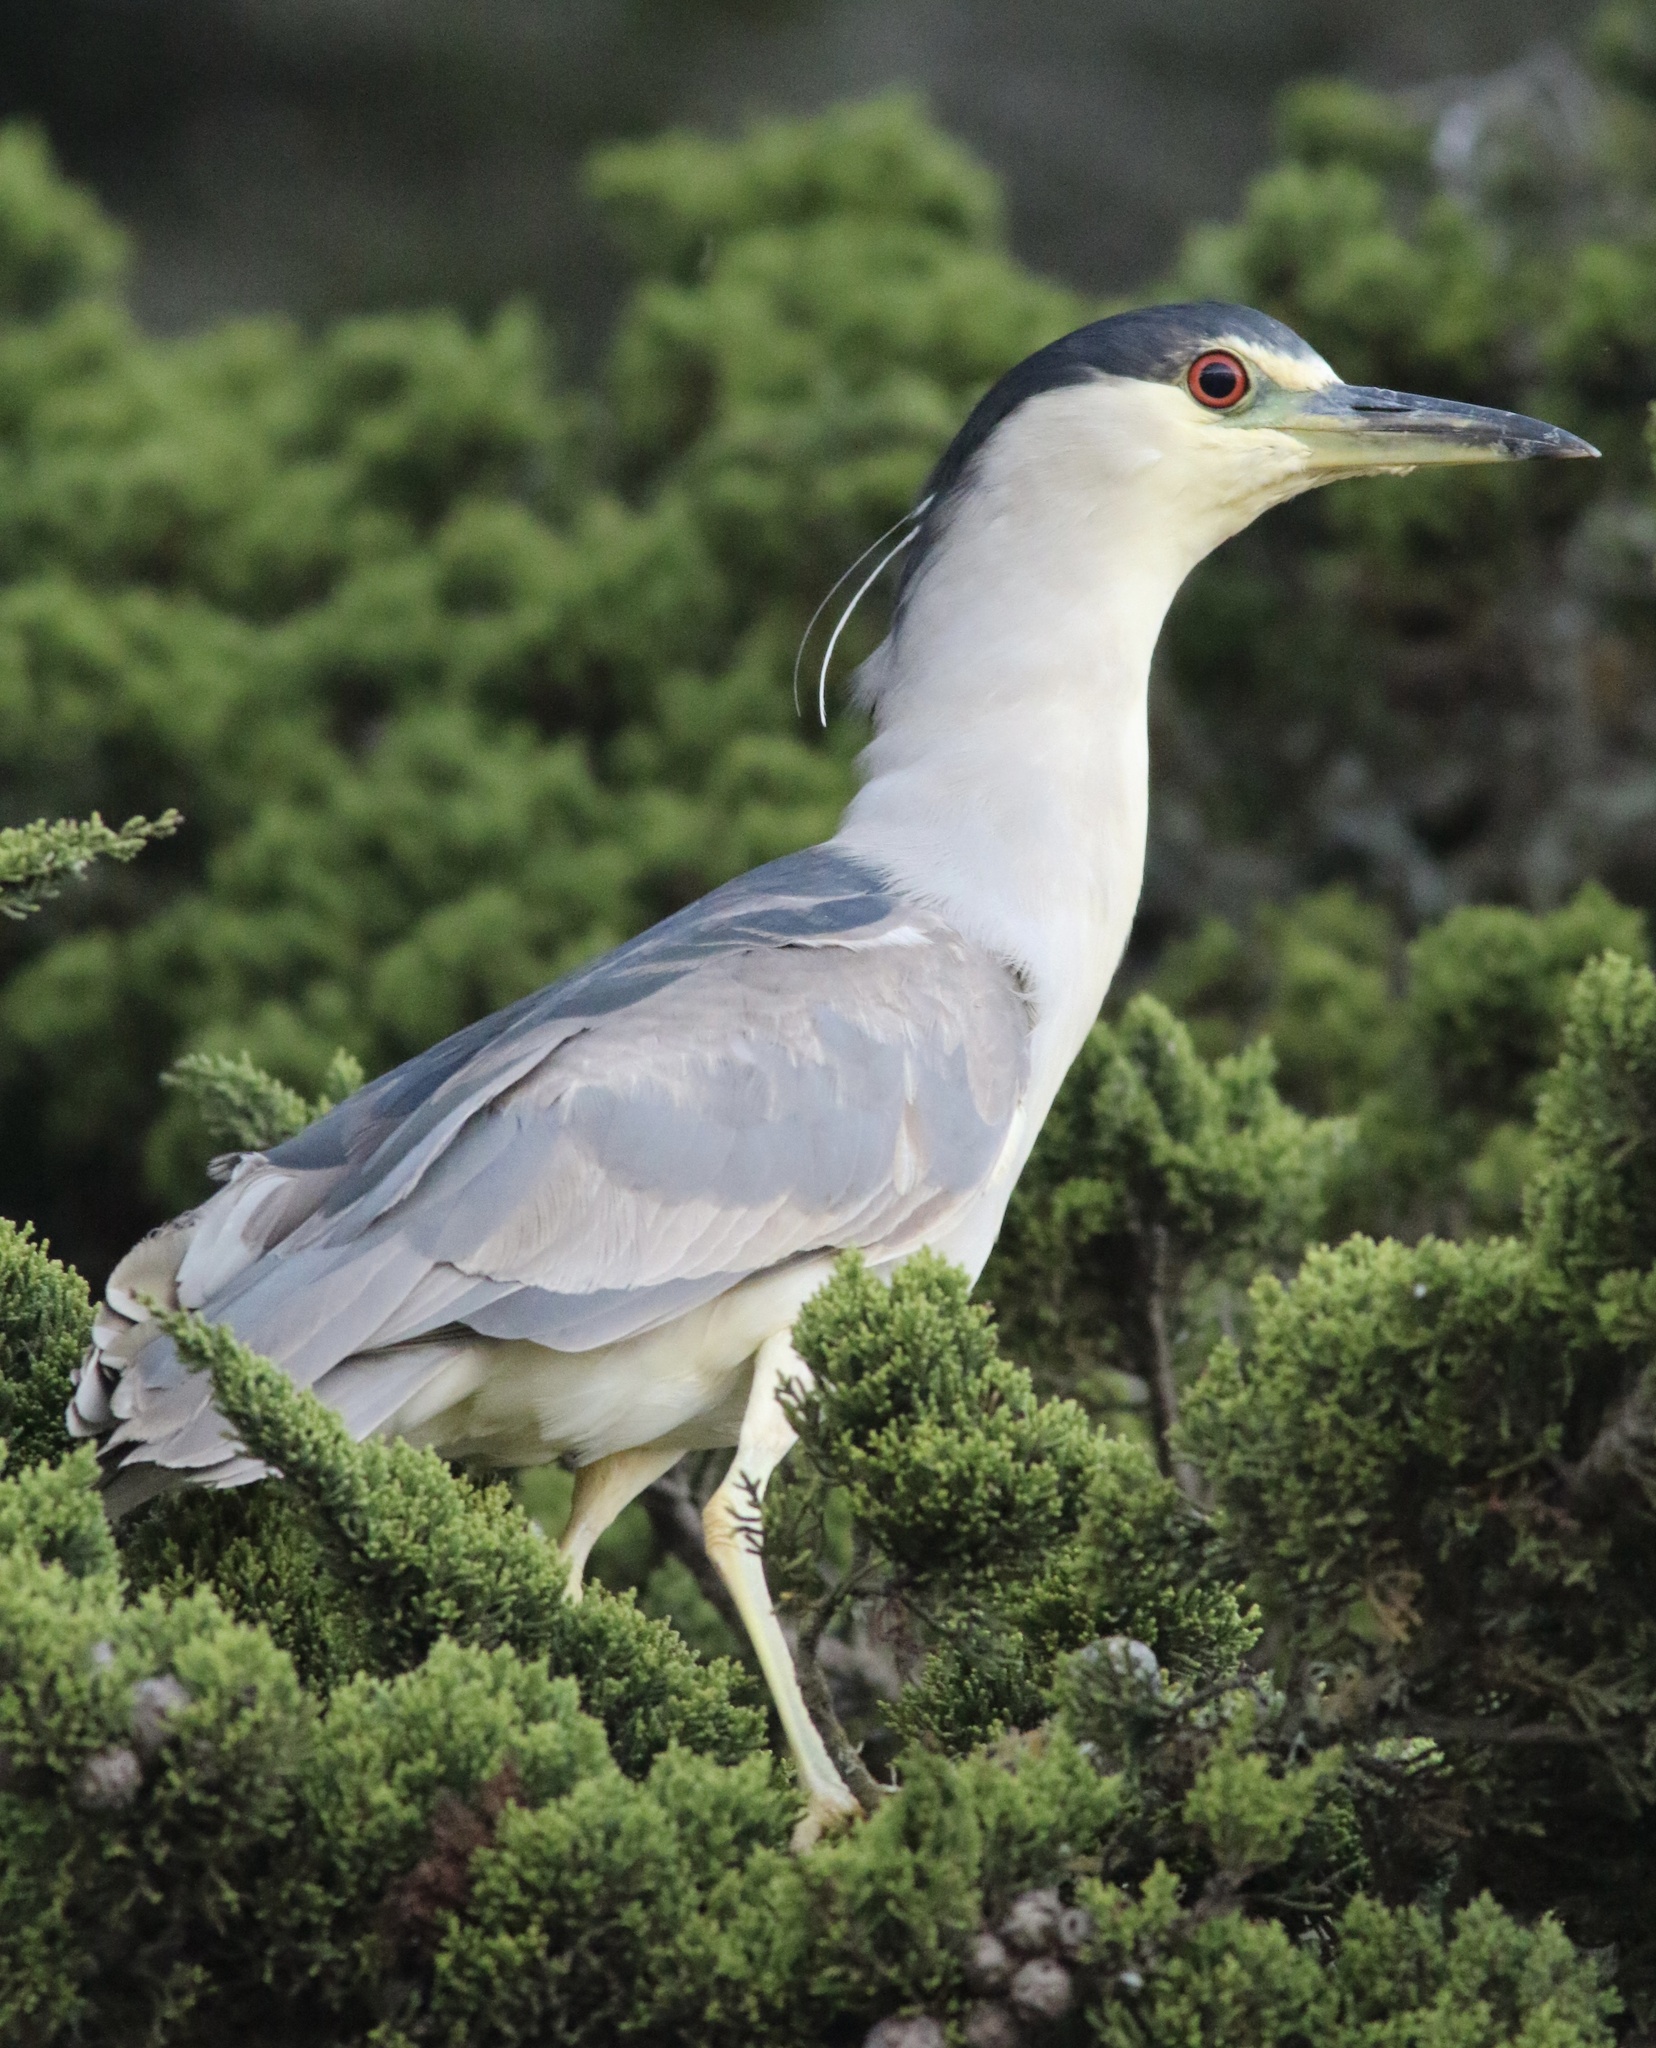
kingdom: Animalia
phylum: Chordata
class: Aves
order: Pelecaniformes
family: Ardeidae
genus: Nycticorax
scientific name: Nycticorax nycticorax
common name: Black-crowned night heron
